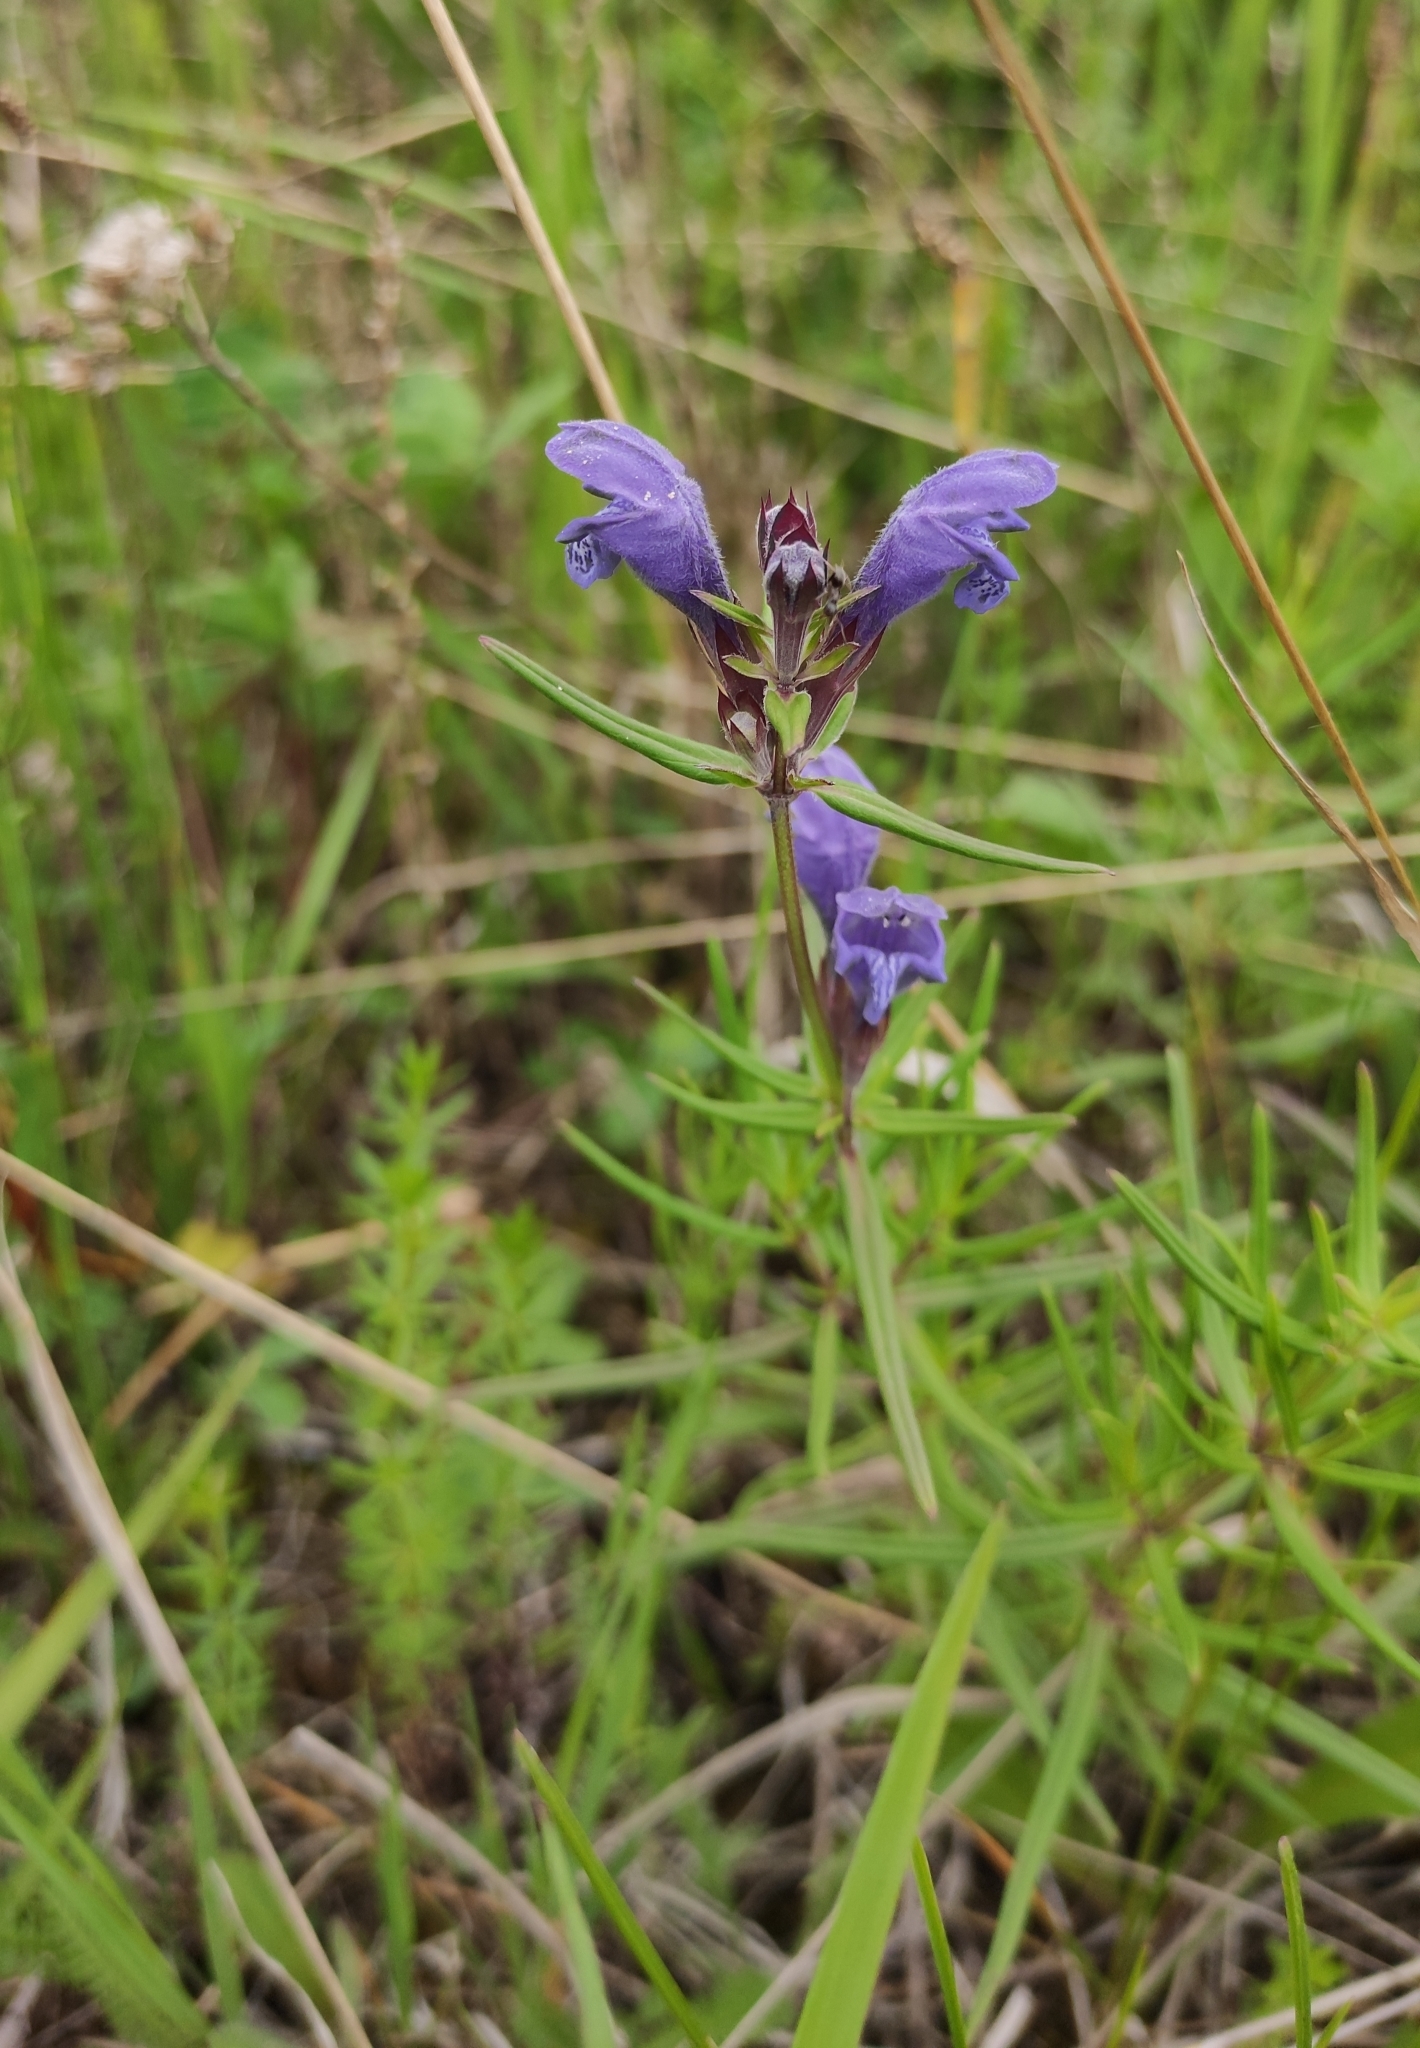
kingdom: Plantae
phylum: Tracheophyta
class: Magnoliopsida
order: Lamiales
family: Lamiaceae
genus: Dracocephalum
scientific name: Dracocephalum ruyschiana
